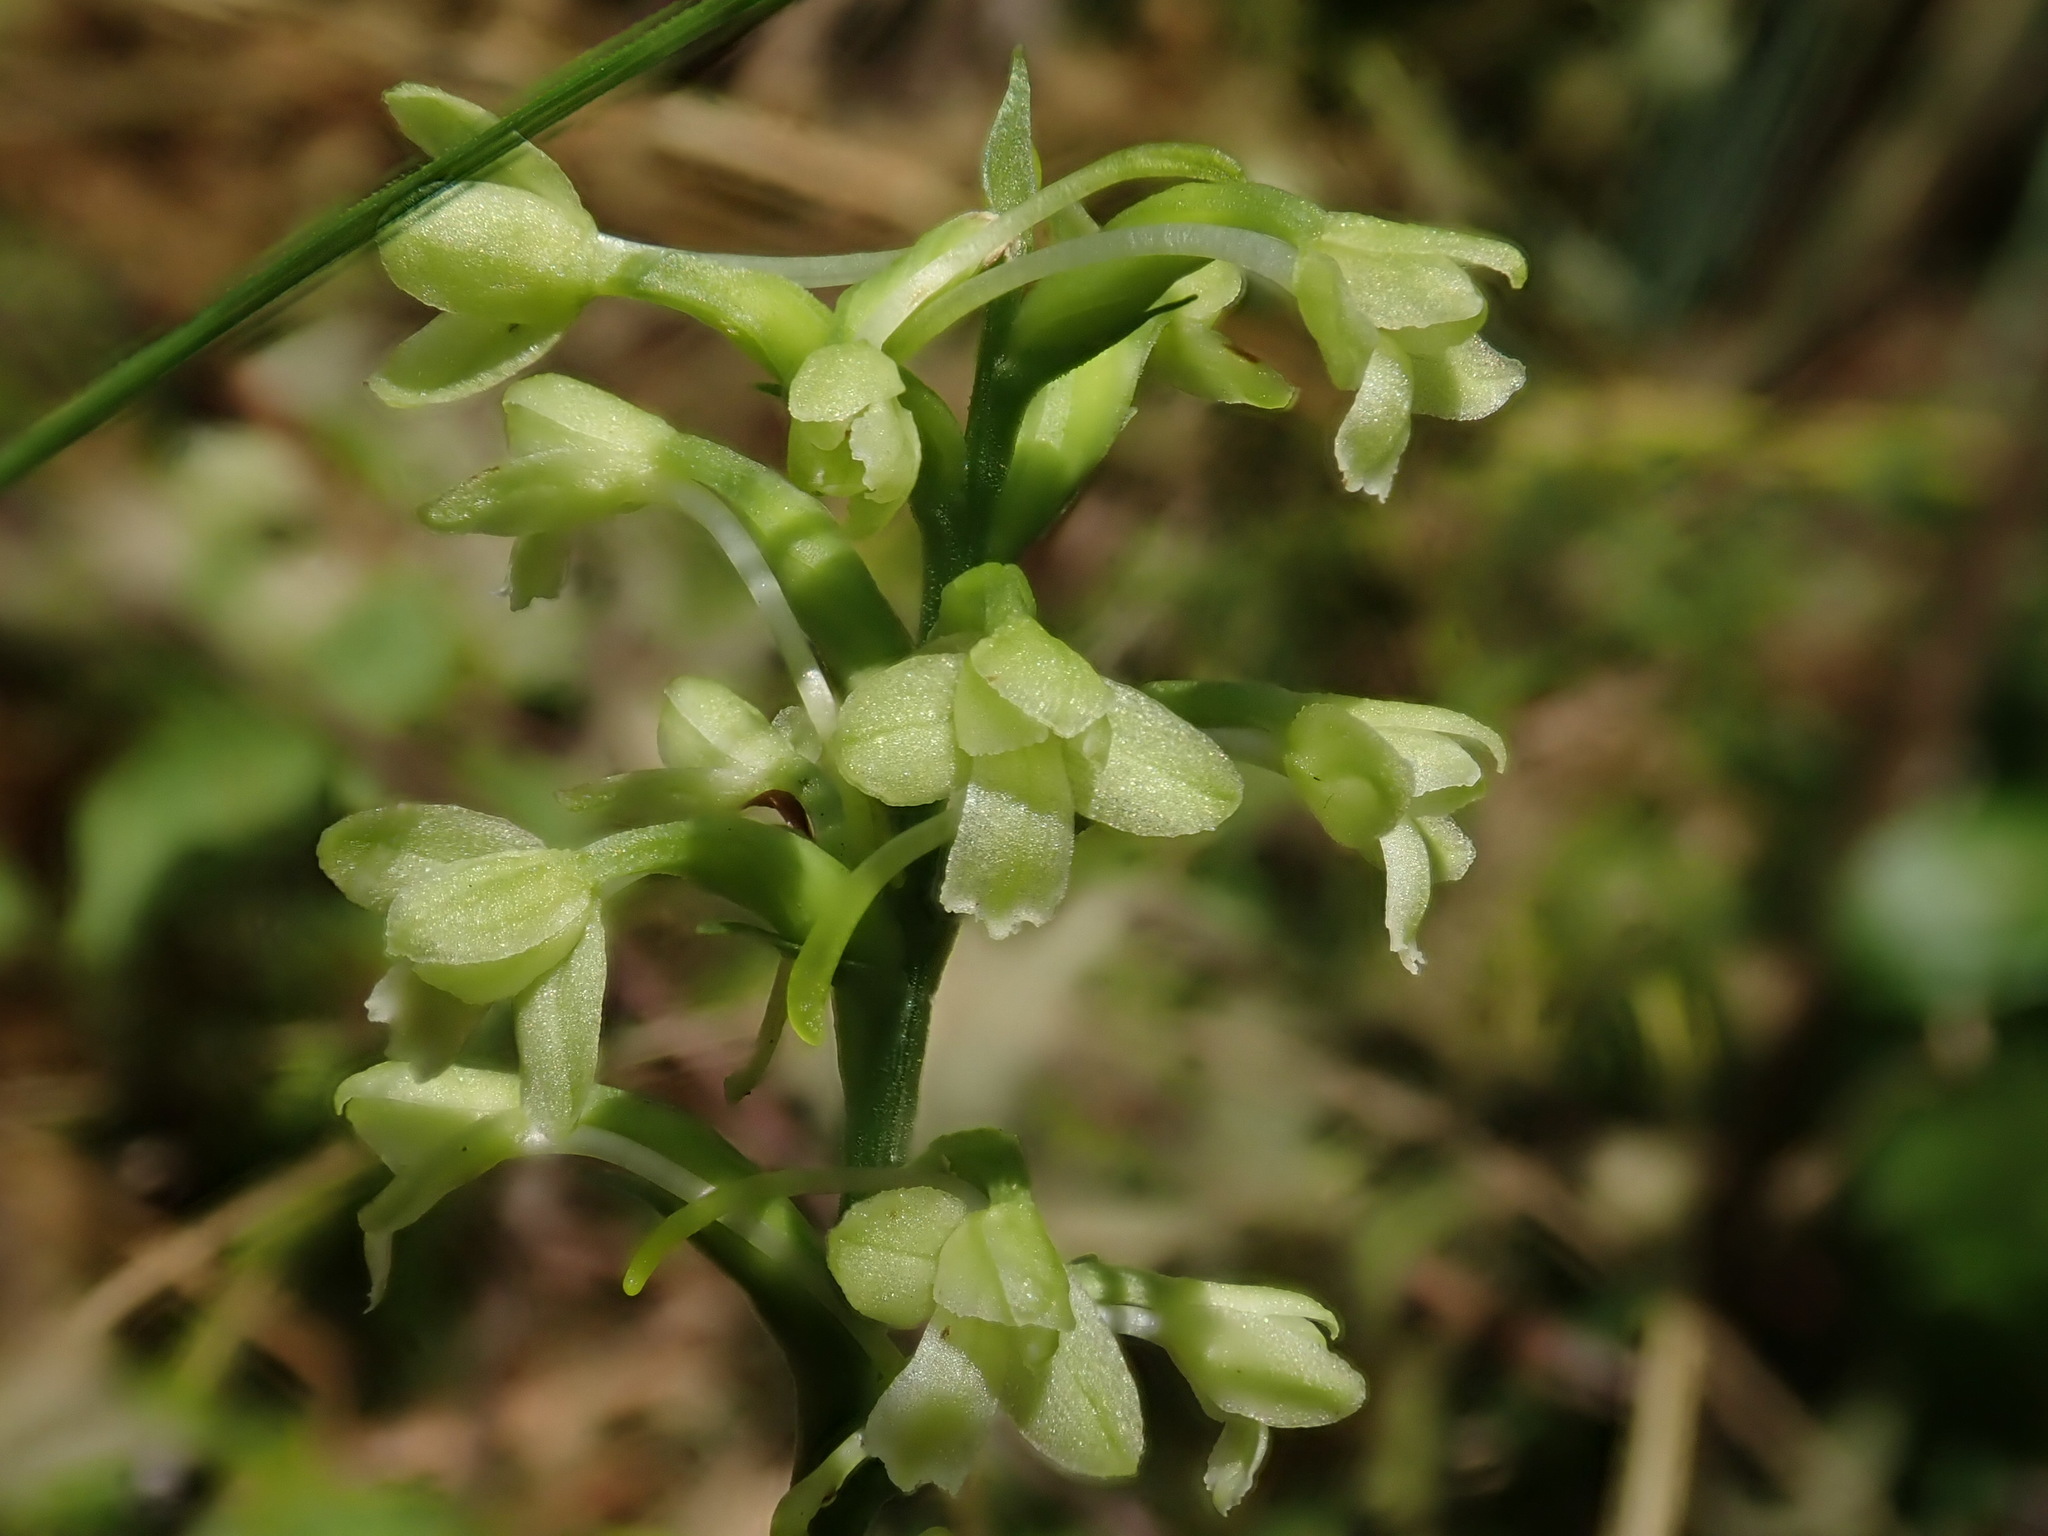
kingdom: Plantae
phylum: Tracheophyta
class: Liliopsida
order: Asparagales
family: Orchidaceae
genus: Platanthera
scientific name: Platanthera clavellata
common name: Club-spur orchid
